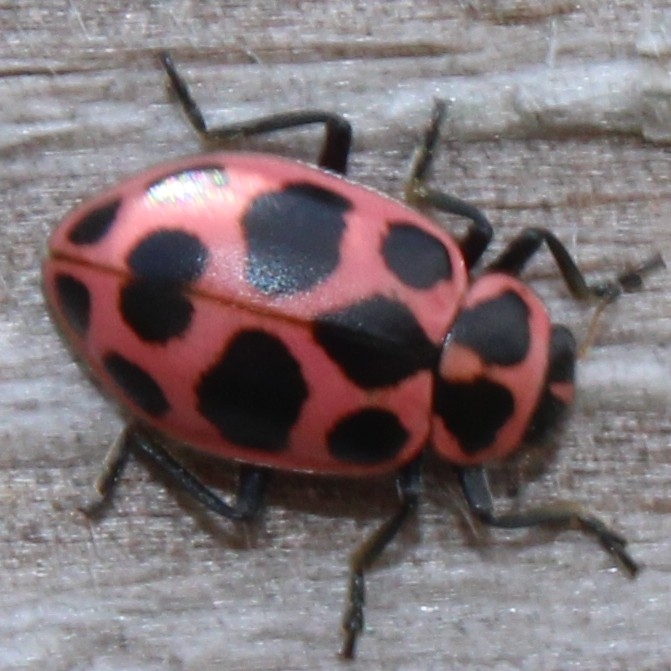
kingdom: Animalia
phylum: Arthropoda
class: Insecta
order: Coleoptera
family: Coccinellidae
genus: Coleomegilla
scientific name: Coleomegilla maculata
